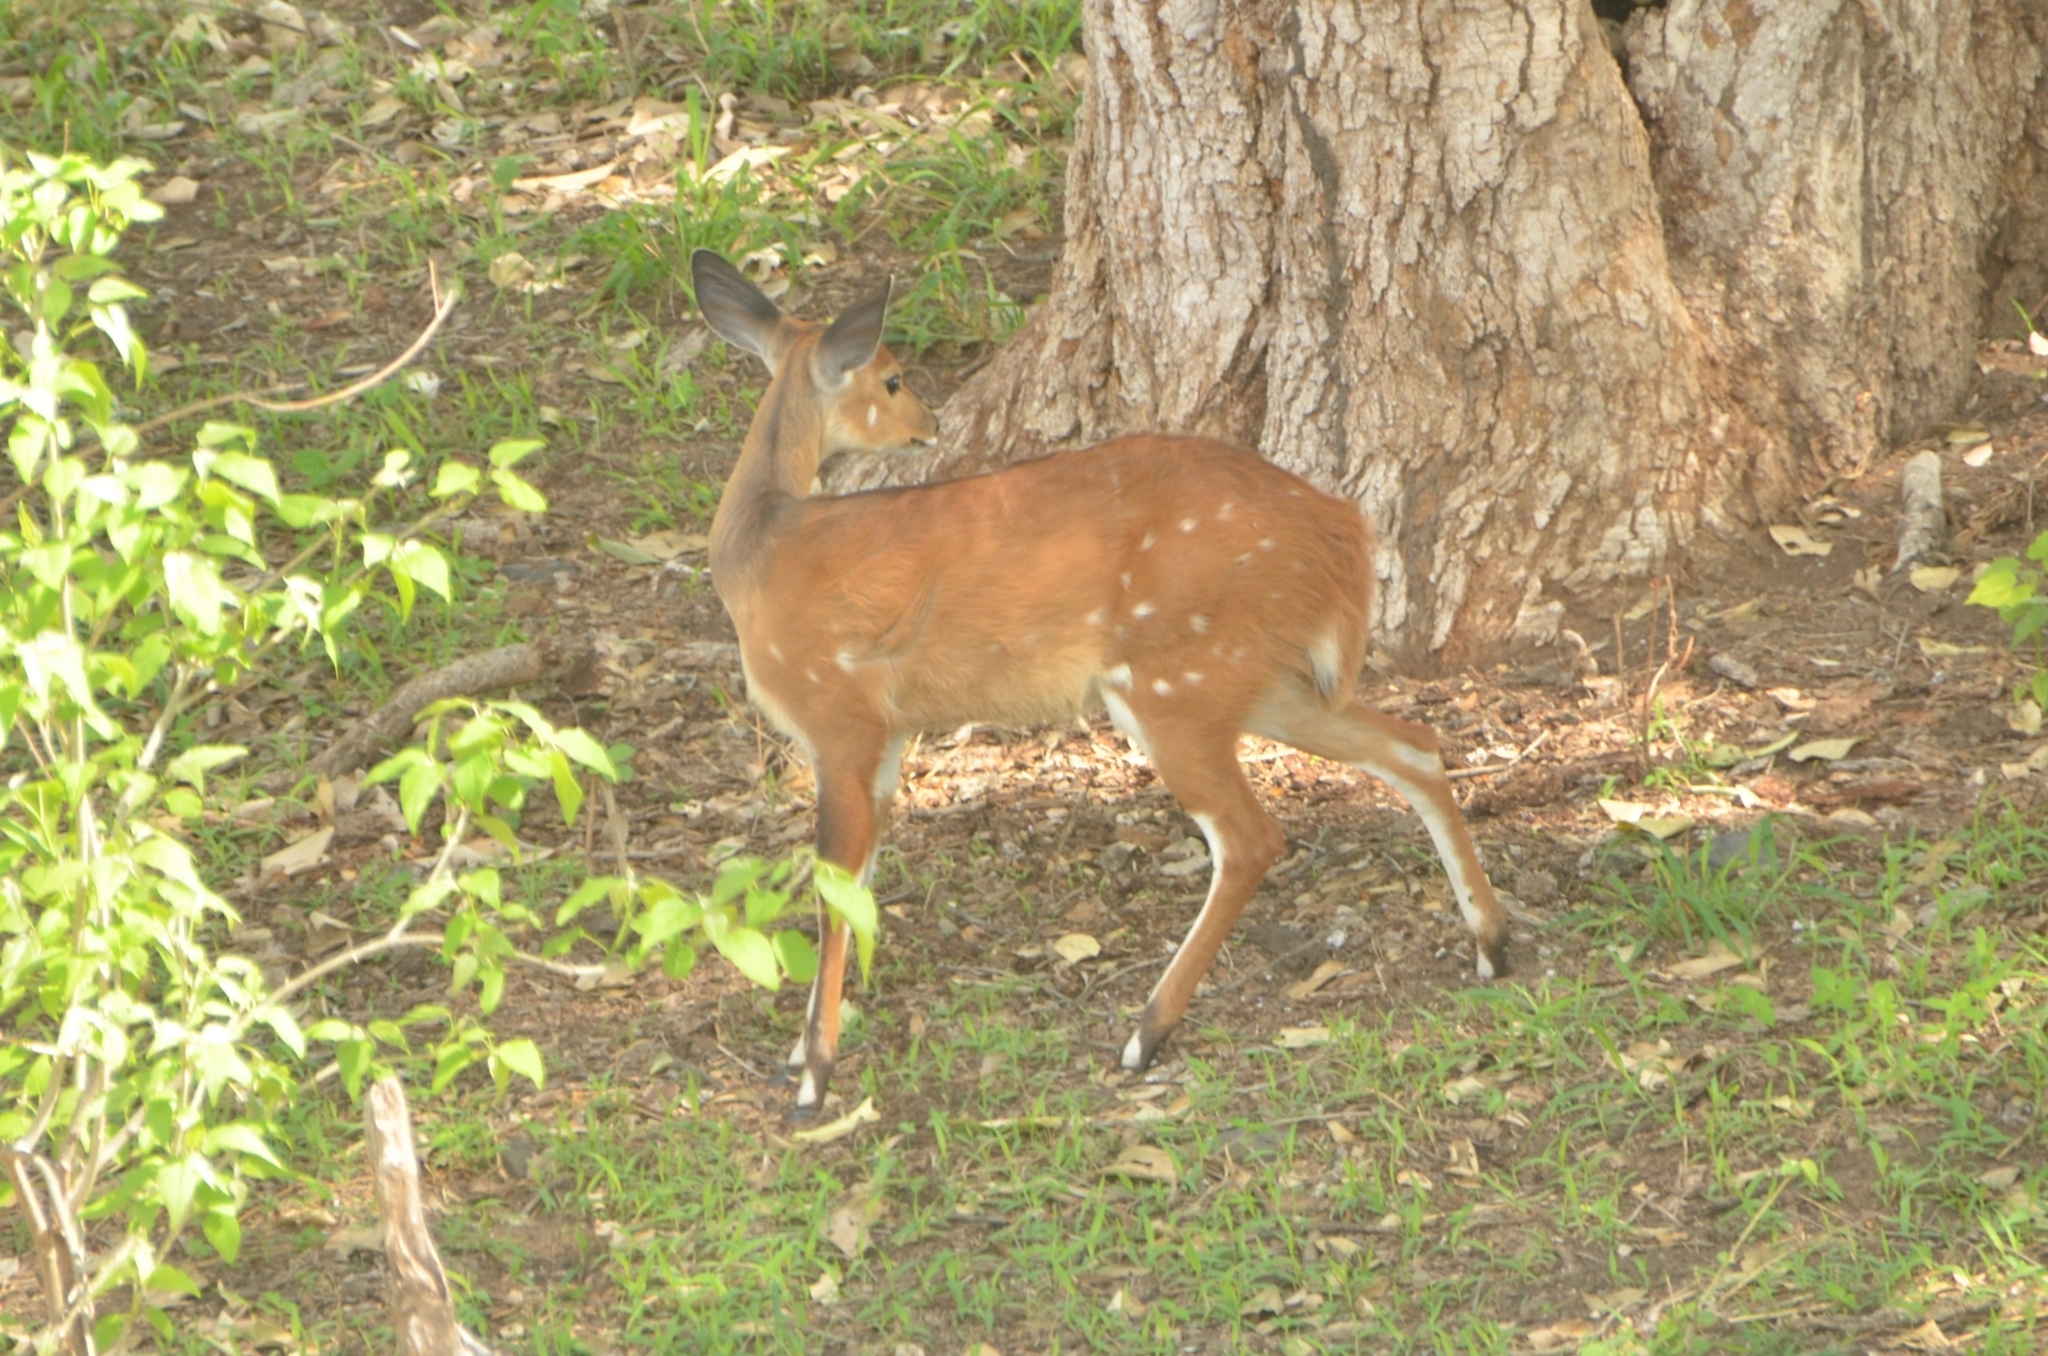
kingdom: Animalia
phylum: Chordata
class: Mammalia
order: Artiodactyla
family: Bovidae
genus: Tragelaphus
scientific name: Tragelaphus scriptus
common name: Bushbuck
